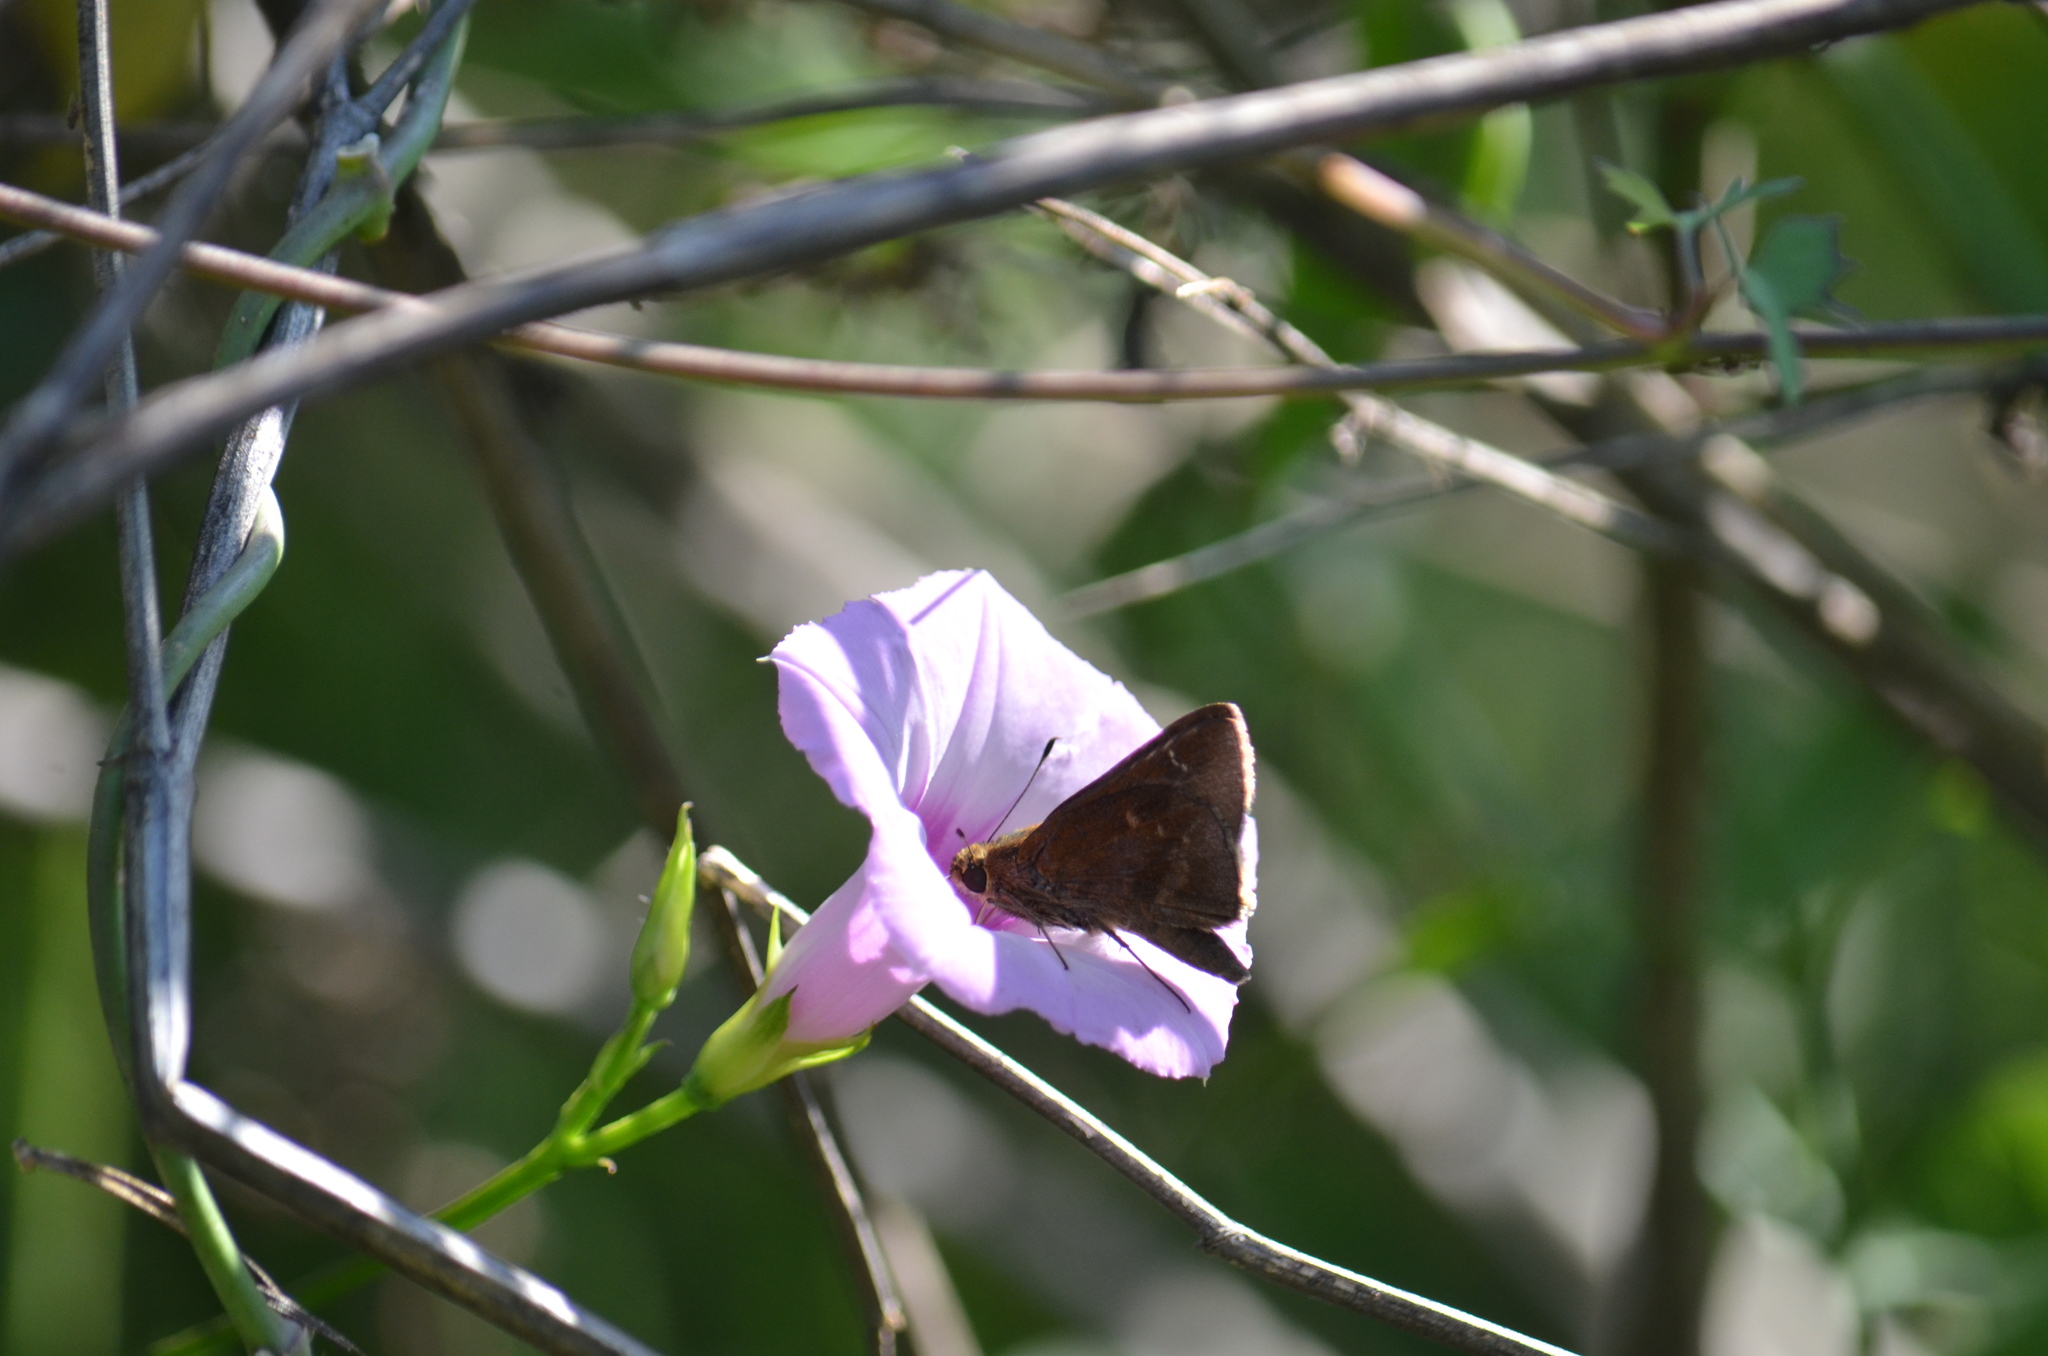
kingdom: Animalia
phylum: Arthropoda
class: Insecta
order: Lepidoptera
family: Hesperiidae
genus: Lerema
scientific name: Lerema accius
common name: Clouded skipper
